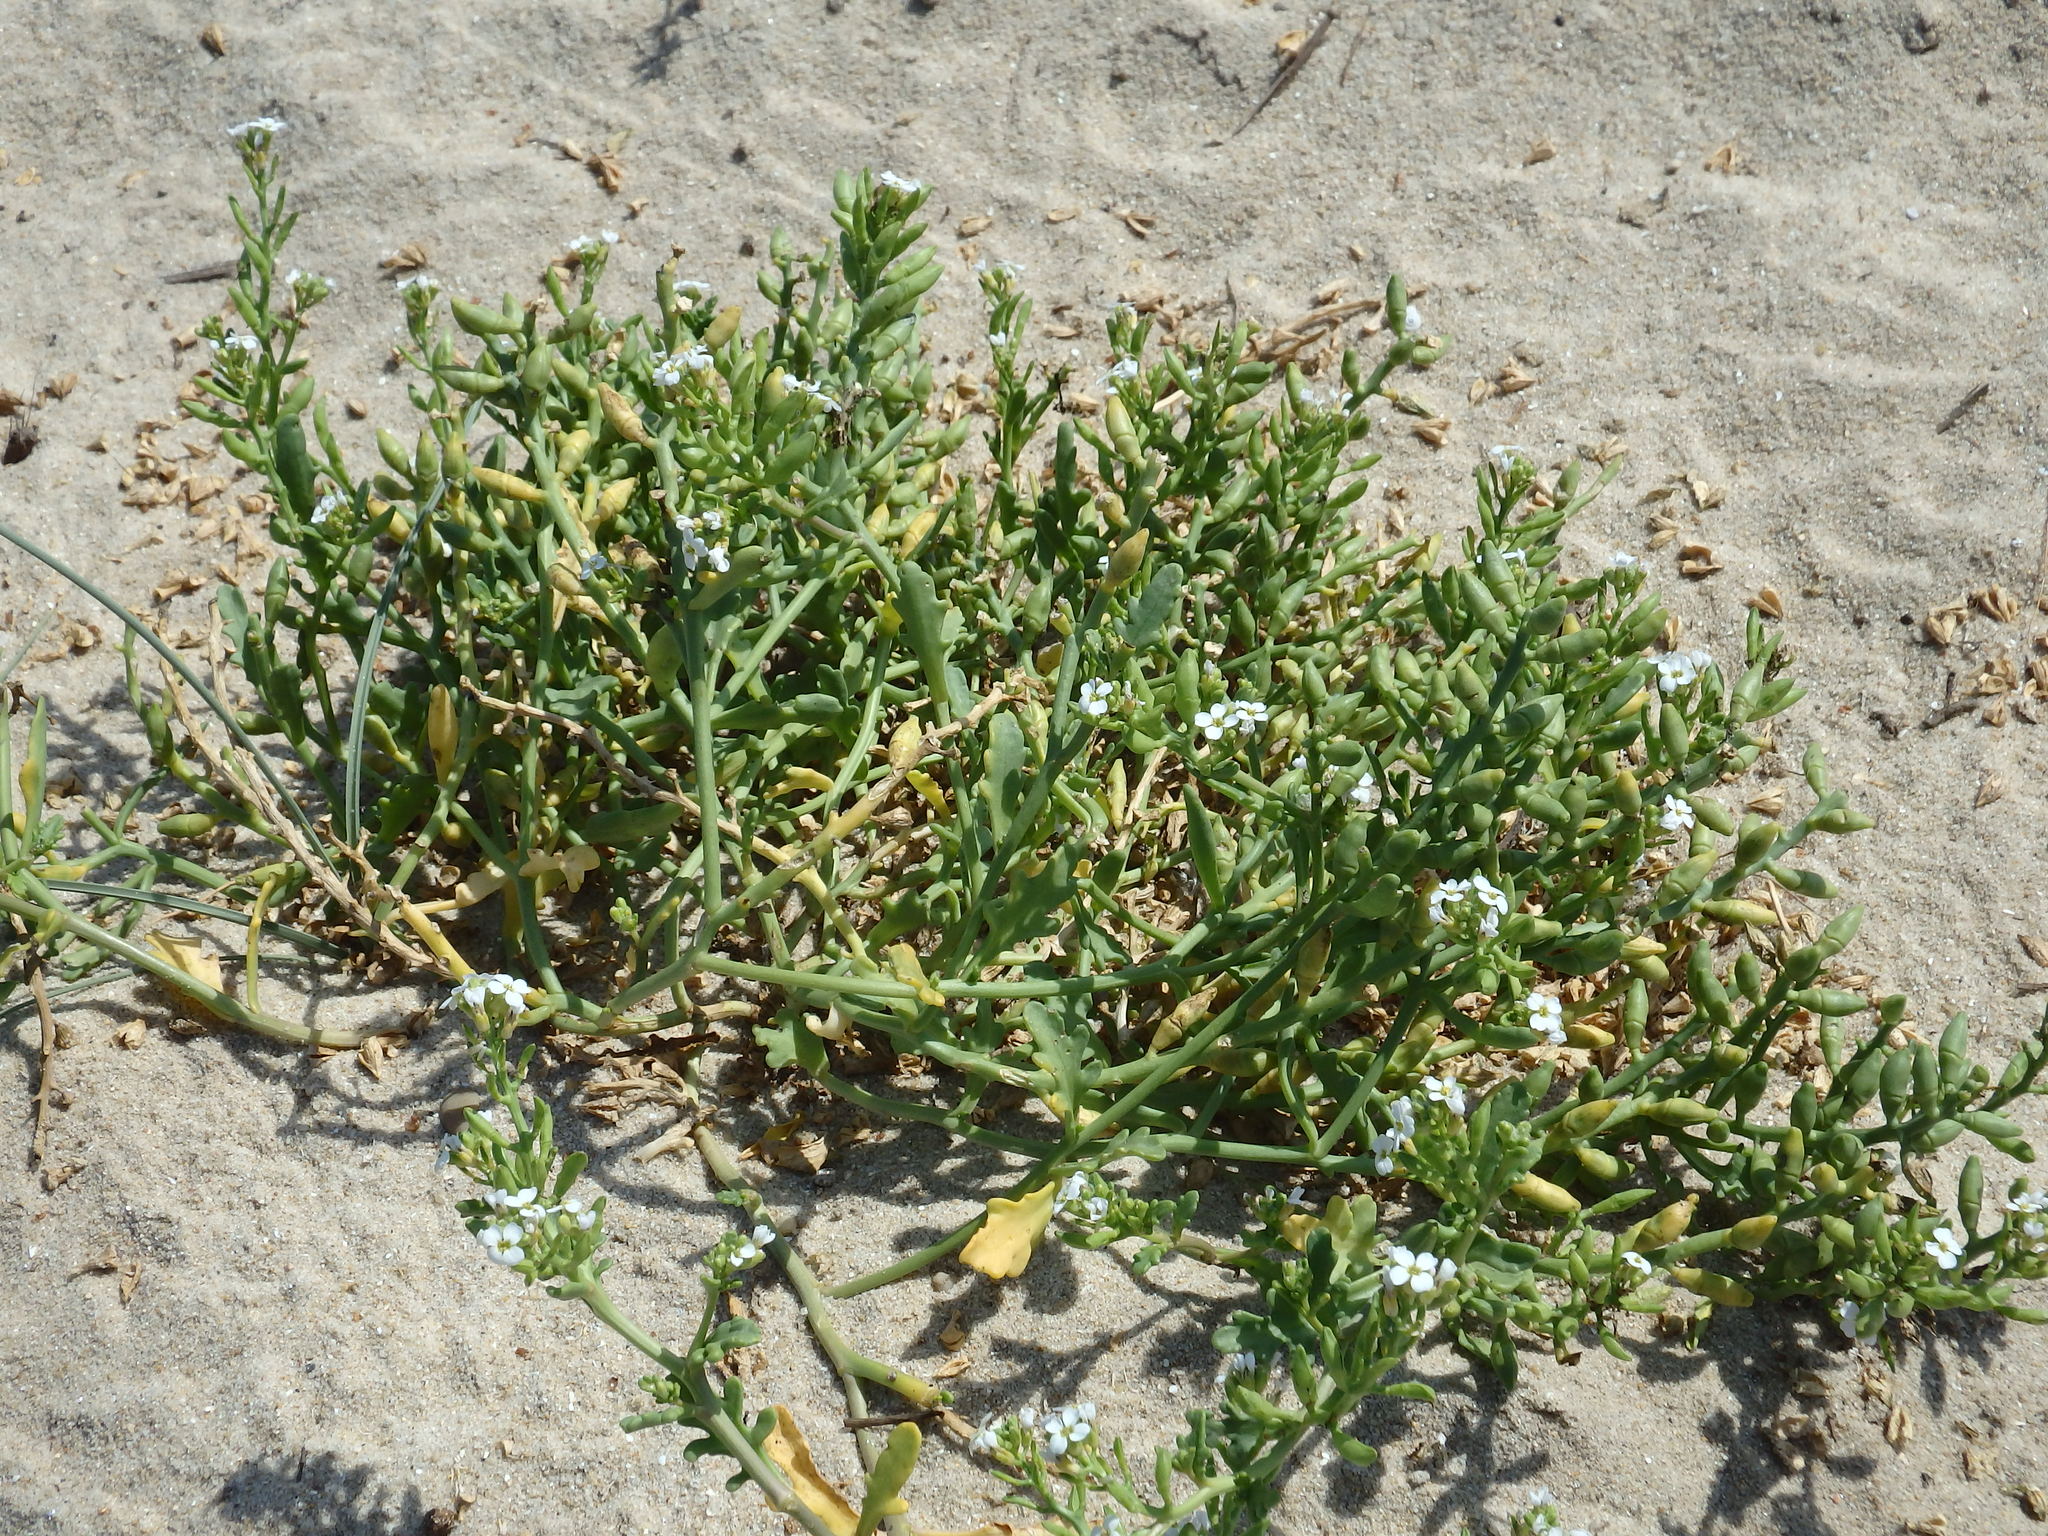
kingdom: Plantae
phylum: Tracheophyta
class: Magnoliopsida
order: Brassicales
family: Brassicaceae
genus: Cakile
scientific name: Cakile maritima
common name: Sea rocket
